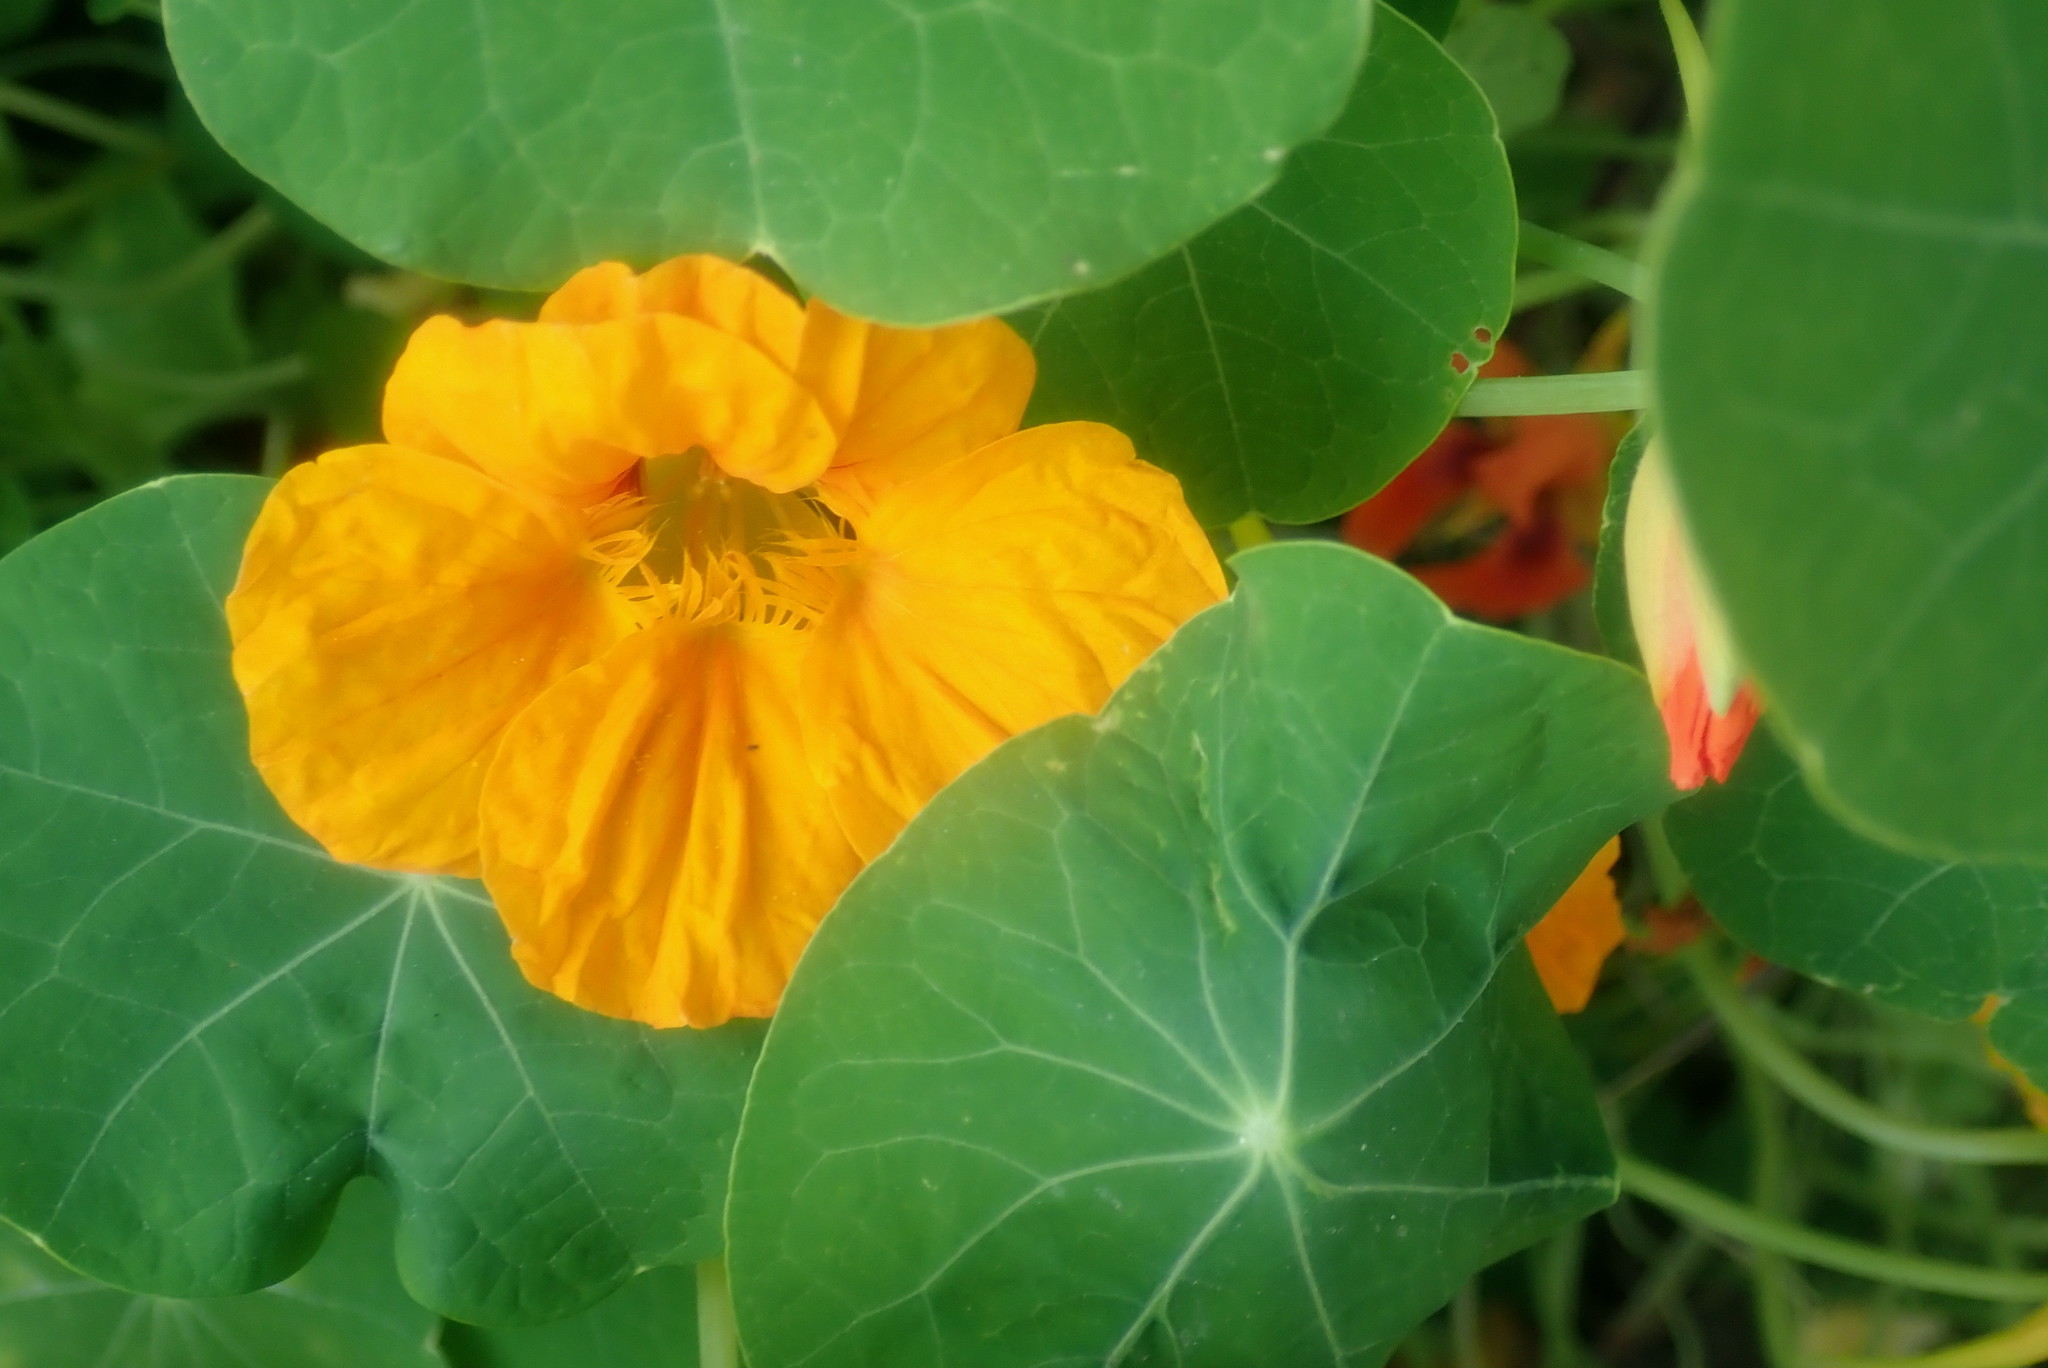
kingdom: Plantae
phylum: Tracheophyta
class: Magnoliopsida
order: Brassicales
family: Tropaeolaceae
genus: Tropaeolum
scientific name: Tropaeolum majus
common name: Nasturtium
